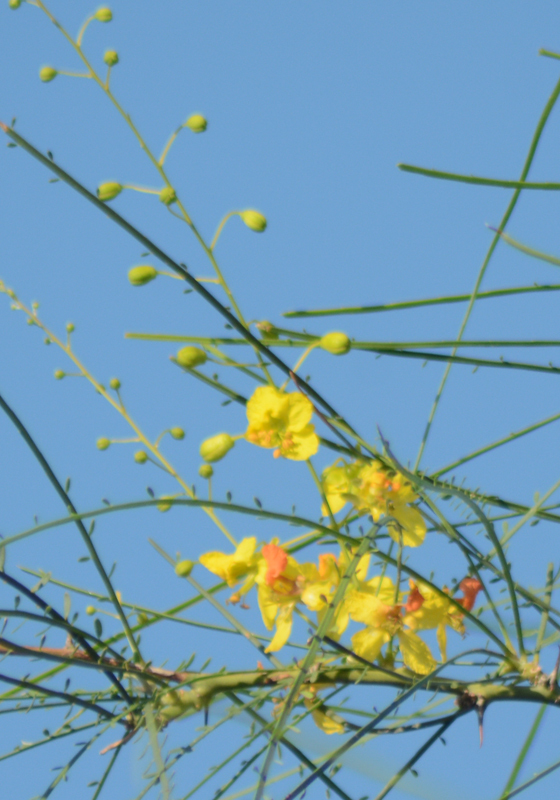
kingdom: Plantae
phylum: Tracheophyta
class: Magnoliopsida
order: Fabales
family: Fabaceae
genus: Parkinsonia
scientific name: Parkinsonia aculeata
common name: Jerusalem thorn
